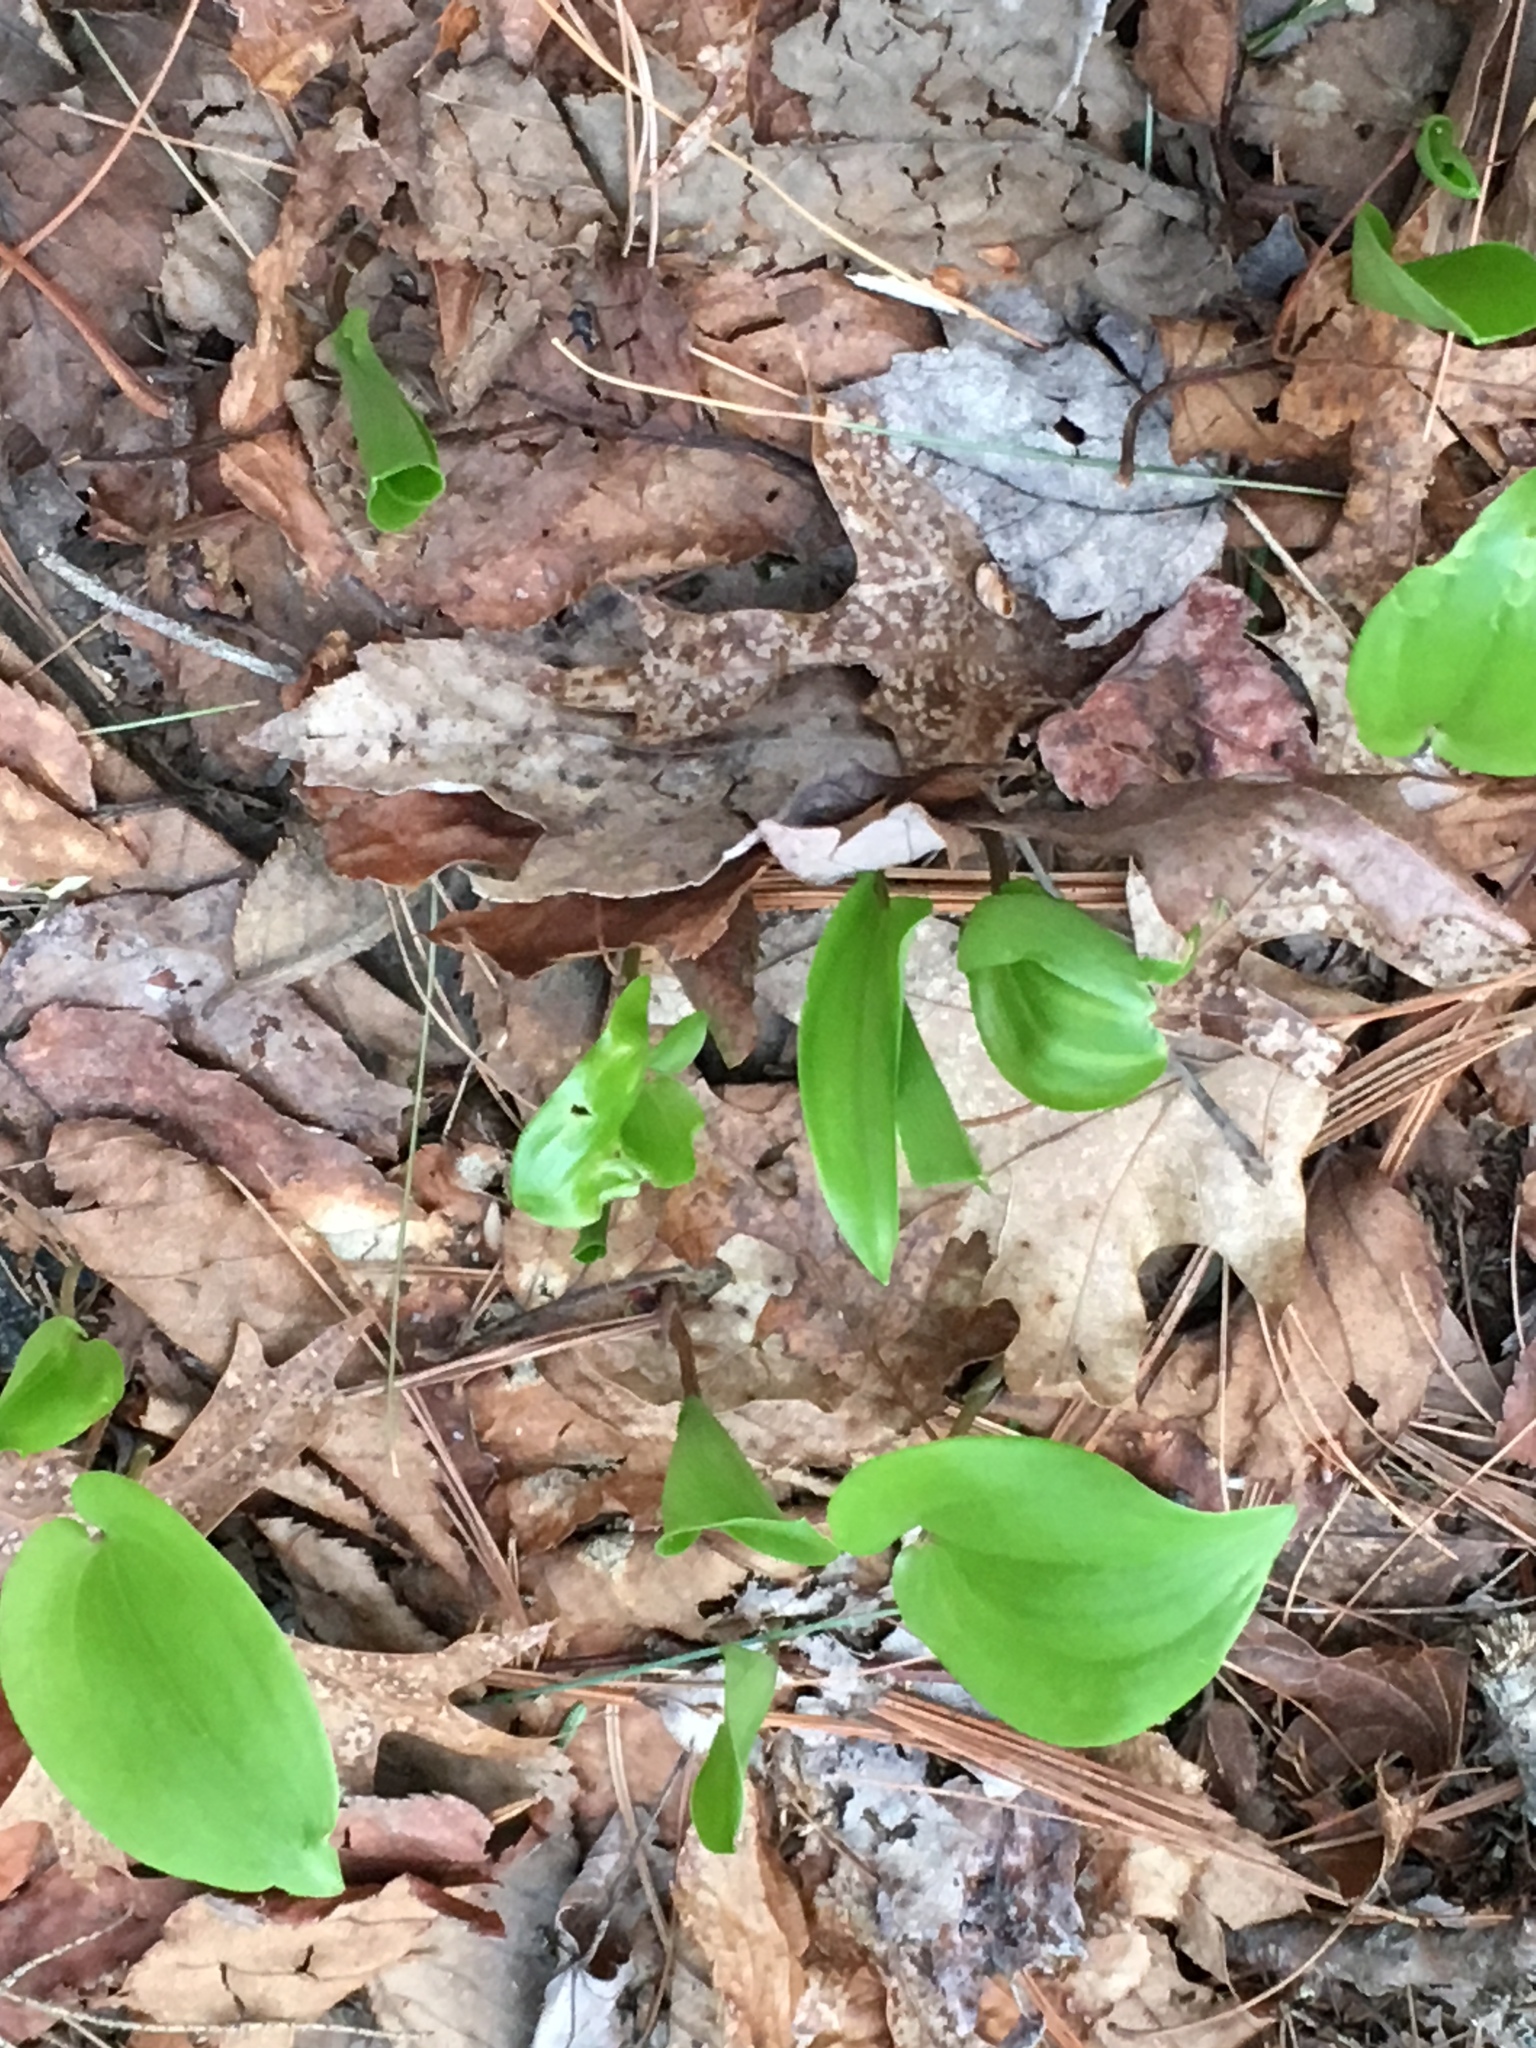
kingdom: Plantae
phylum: Tracheophyta
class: Liliopsida
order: Asparagales
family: Asparagaceae
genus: Maianthemum
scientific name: Maianthemum canadense
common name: False lily-of-the-valley
